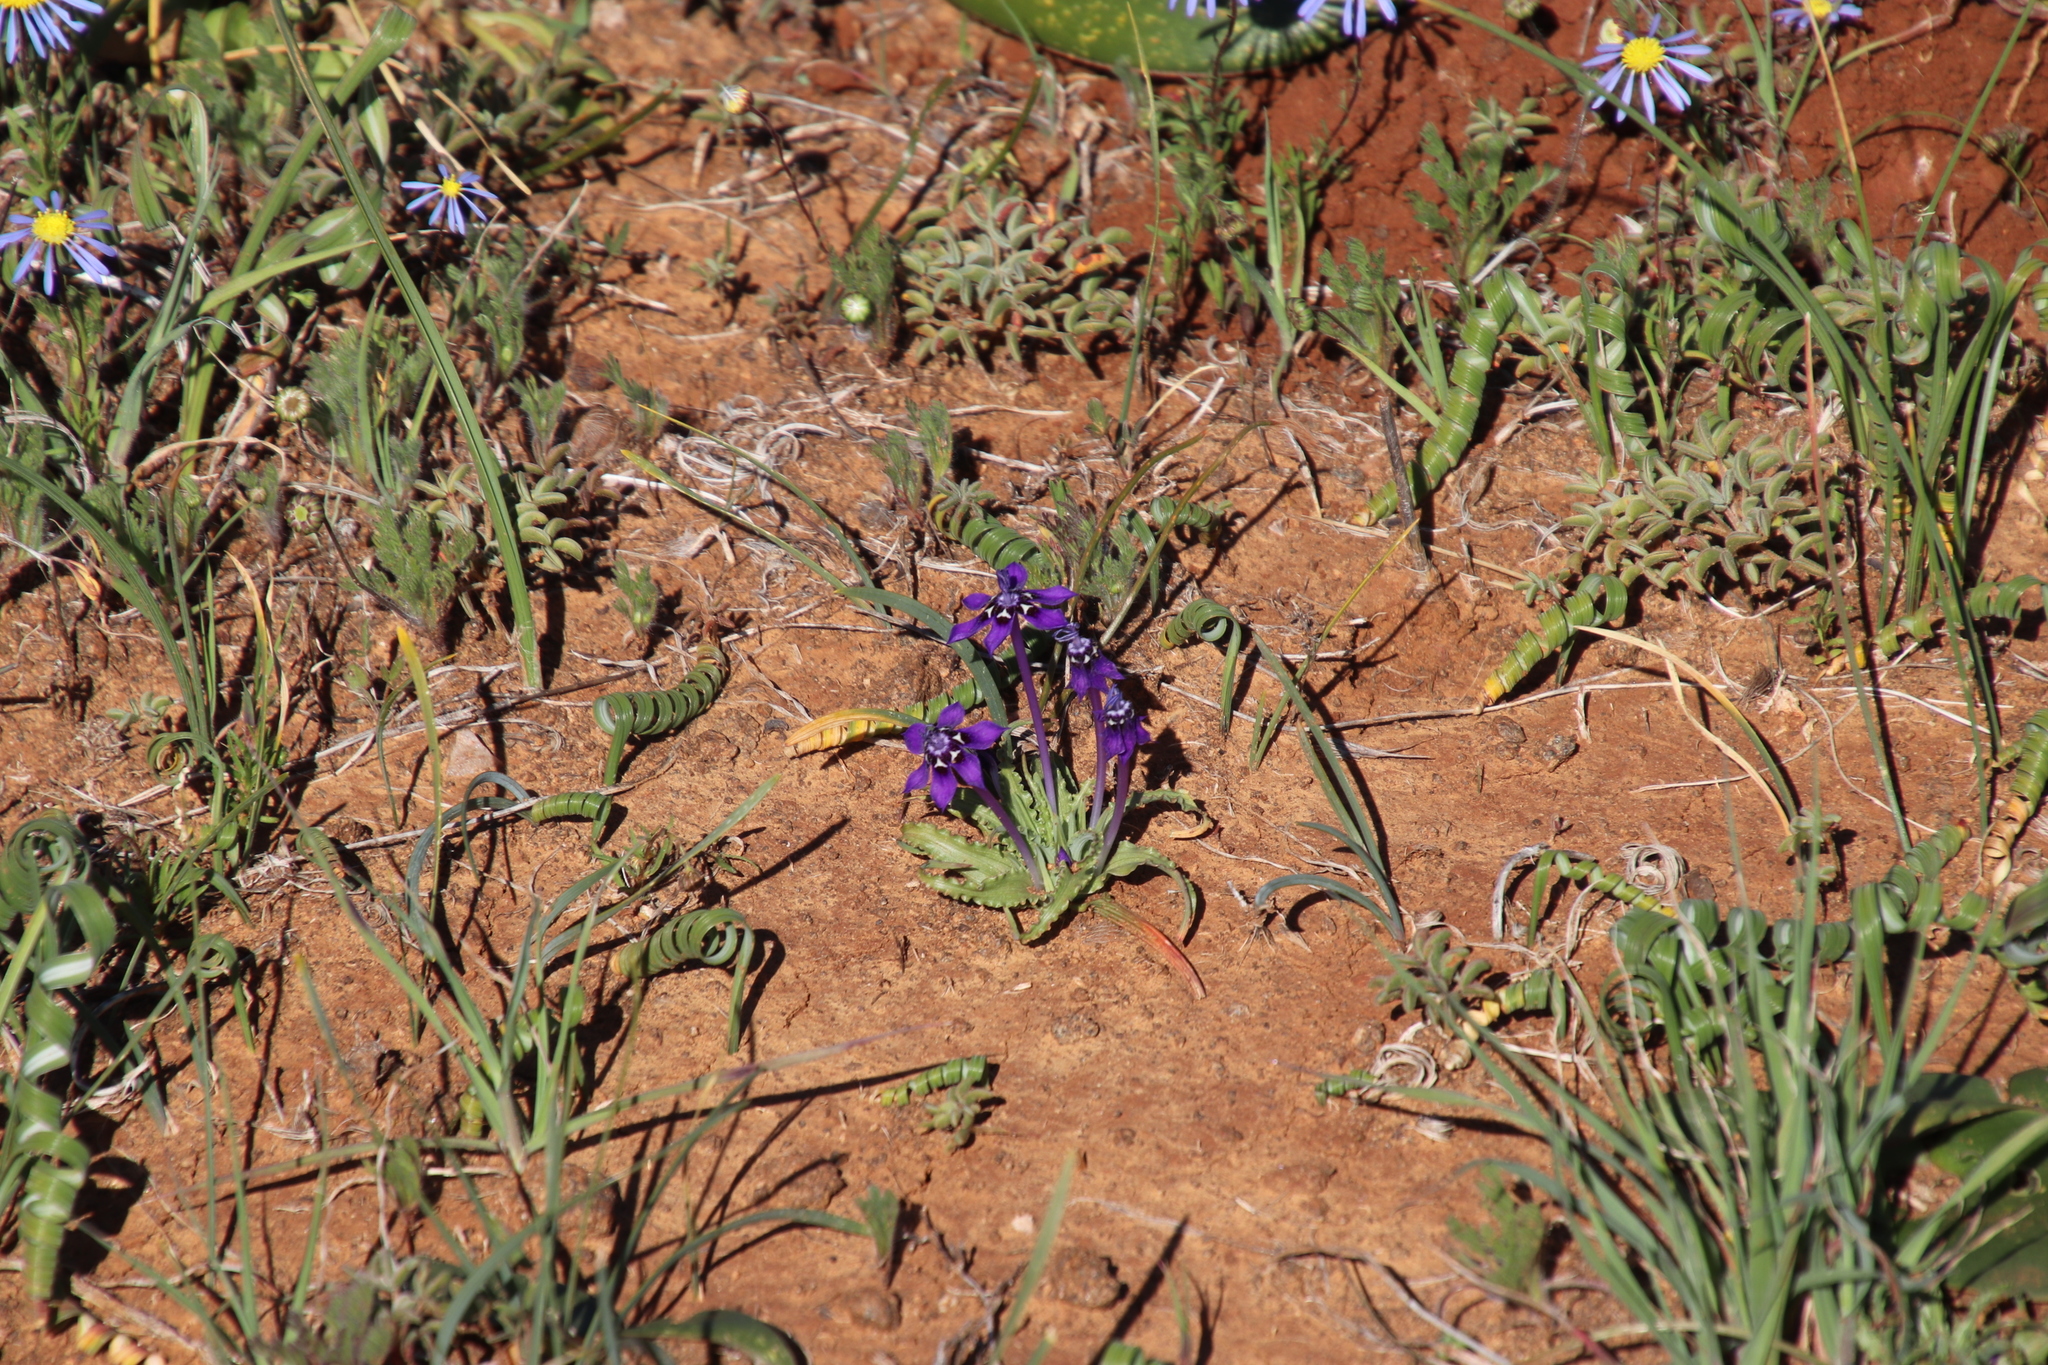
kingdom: Plantae
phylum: Tracheophyta
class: Liliopsida
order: Asparagales
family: Iridaceae
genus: Lapeirousia
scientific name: Lapeirousia oreogena
